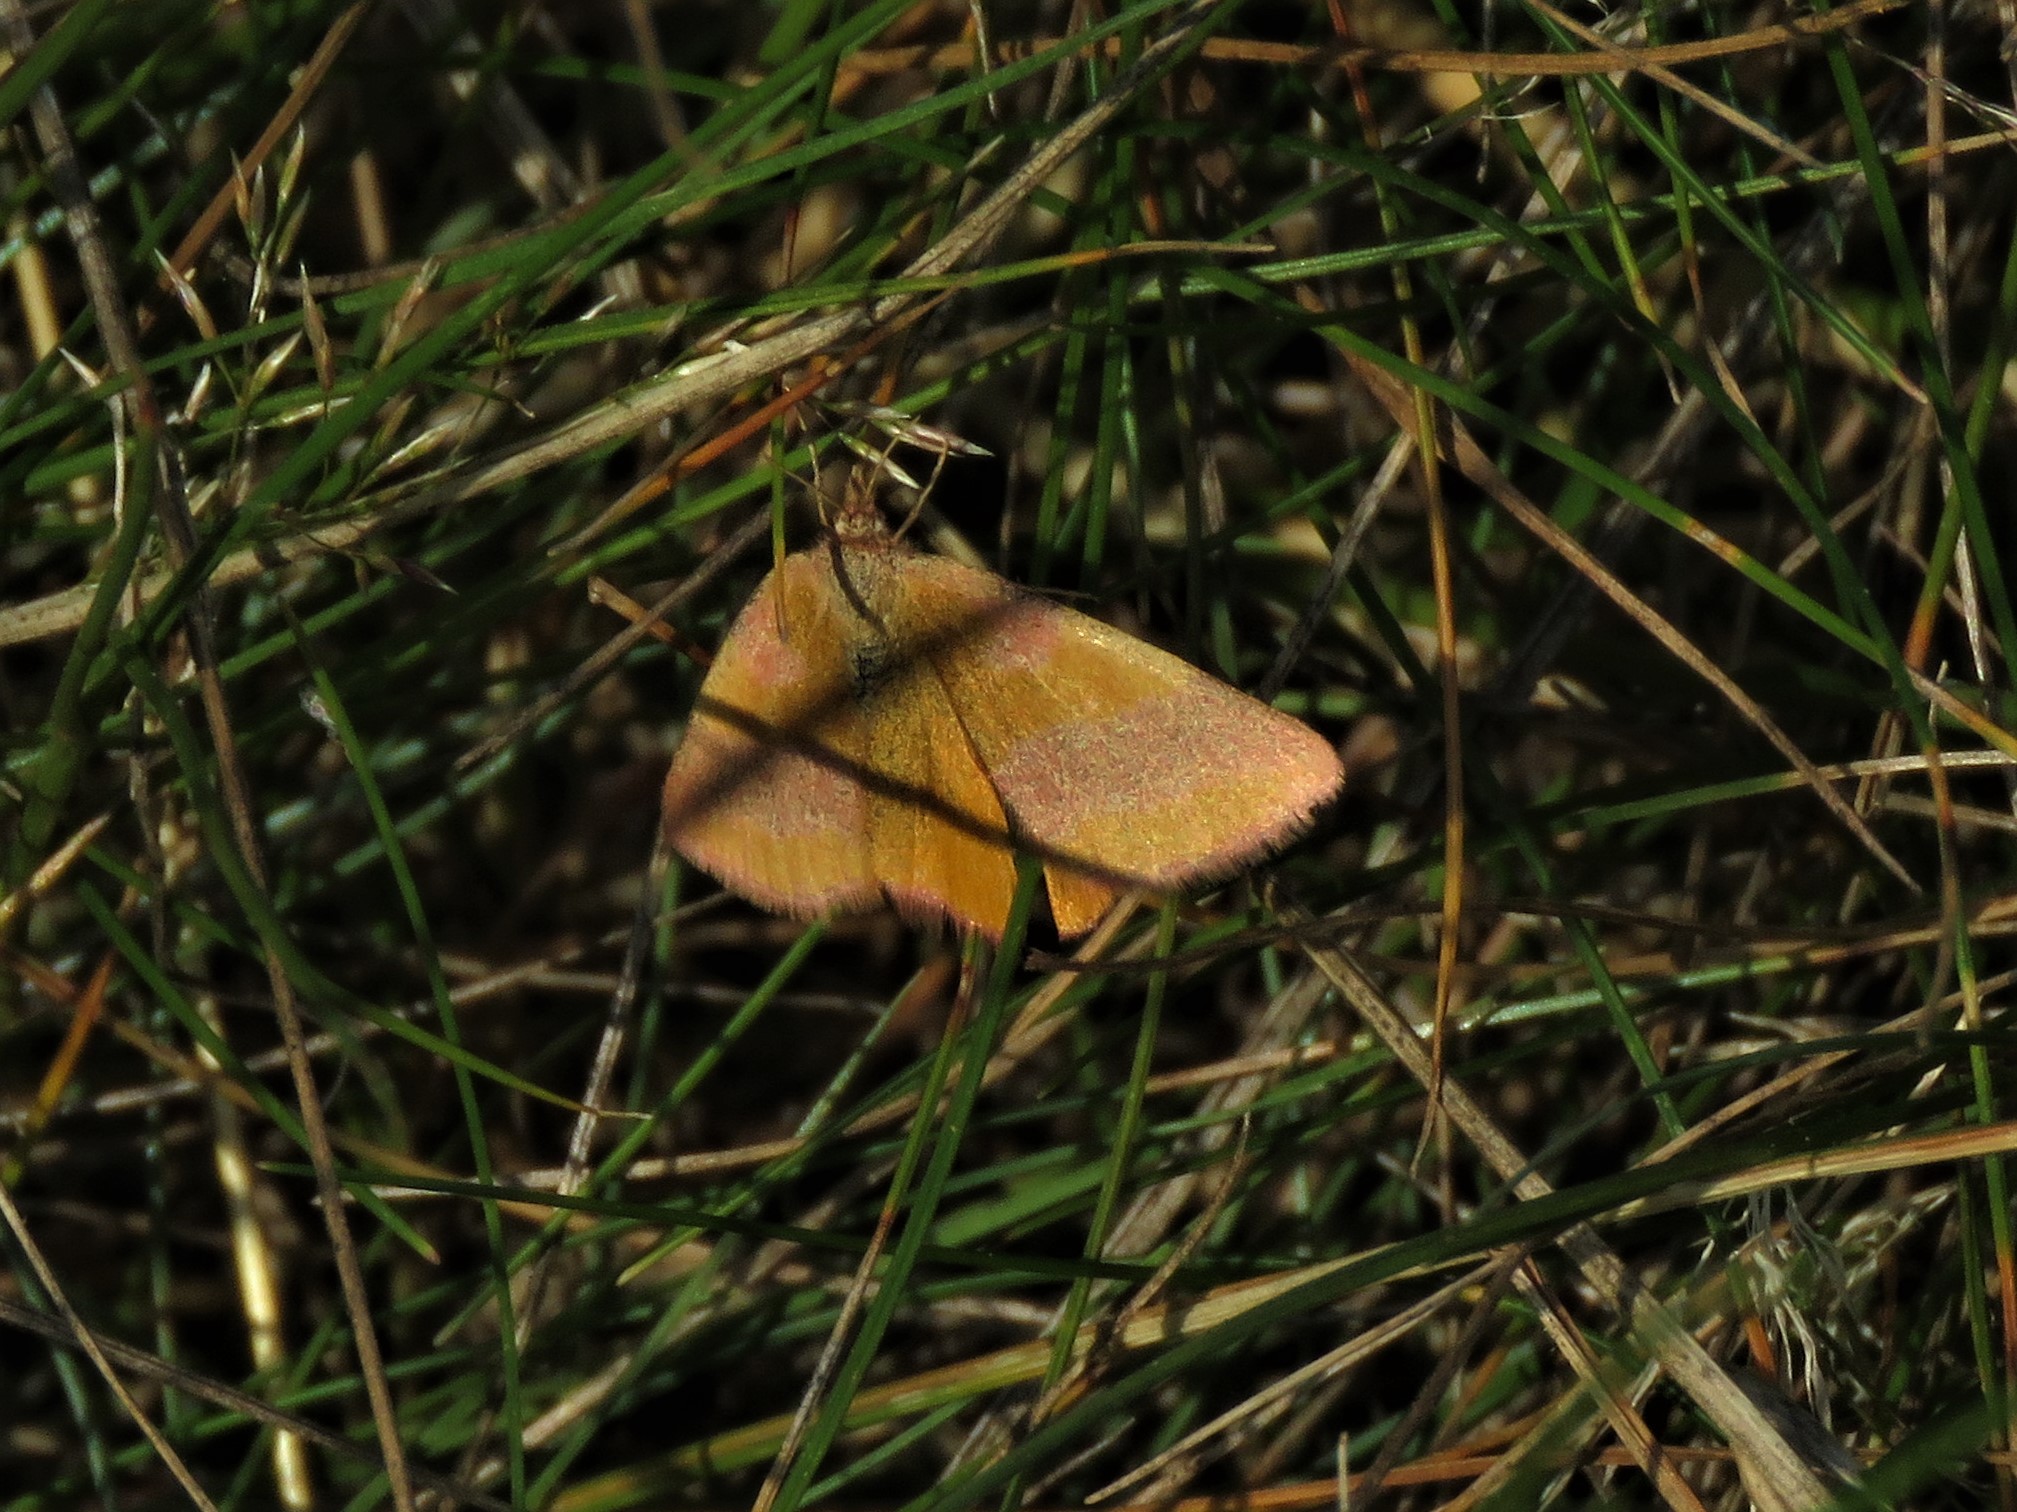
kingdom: Animalia
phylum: Arthropoda
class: Insecta
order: Lepidoptera
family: Geometridae
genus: Lythria
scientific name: Lythria cruentaria
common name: Purple-barred yellow
